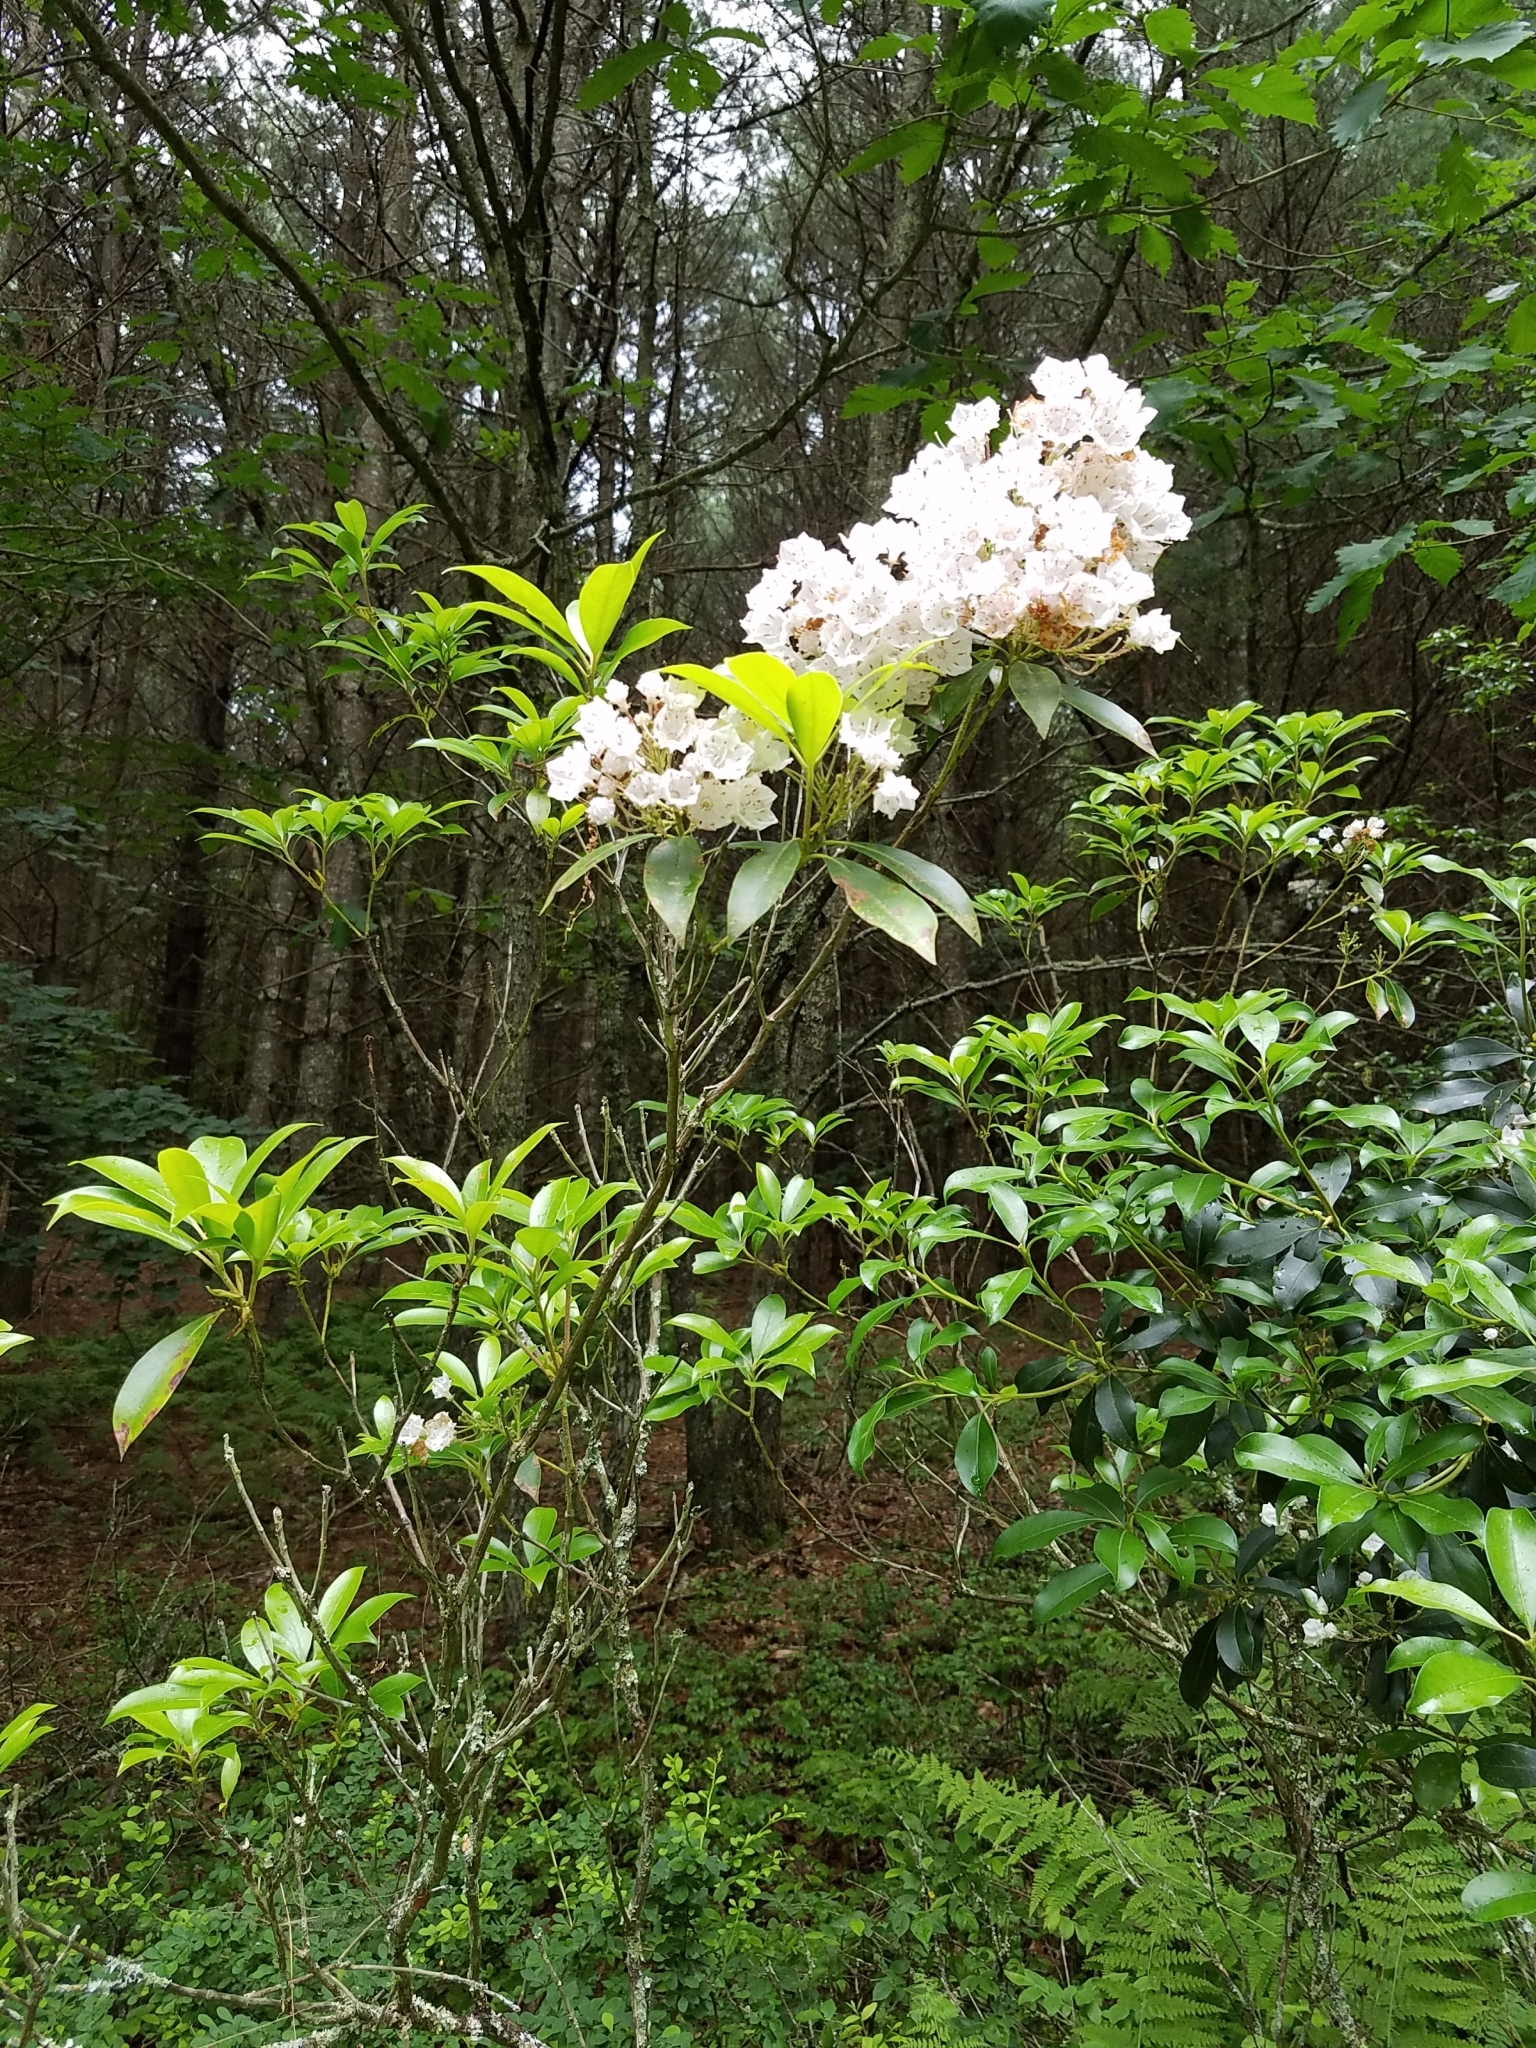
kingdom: Plantae
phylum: Tracheophyta
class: Magnoliopsida
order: Ericales
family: Ericaceae
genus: Kalmia
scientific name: Kalmia latifolia
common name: Mountain-laurel
